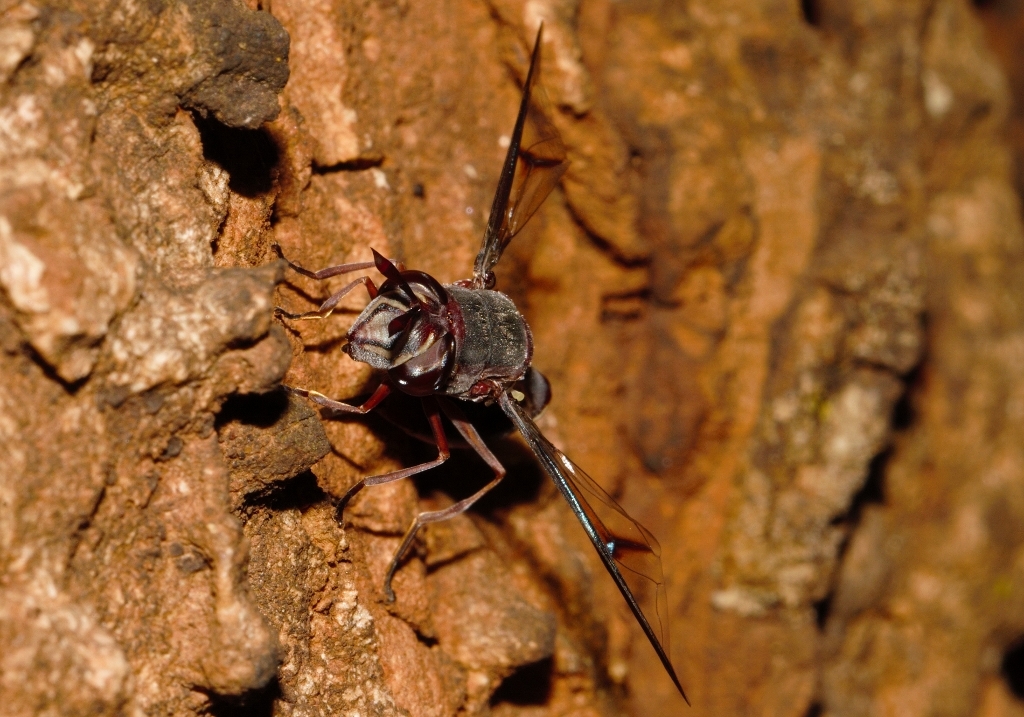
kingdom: Animalia
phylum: Arthropoda
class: Insecta
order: Diptera
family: Syrphidae
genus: Monoceromyia
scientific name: Monoceromyia unipunctata
